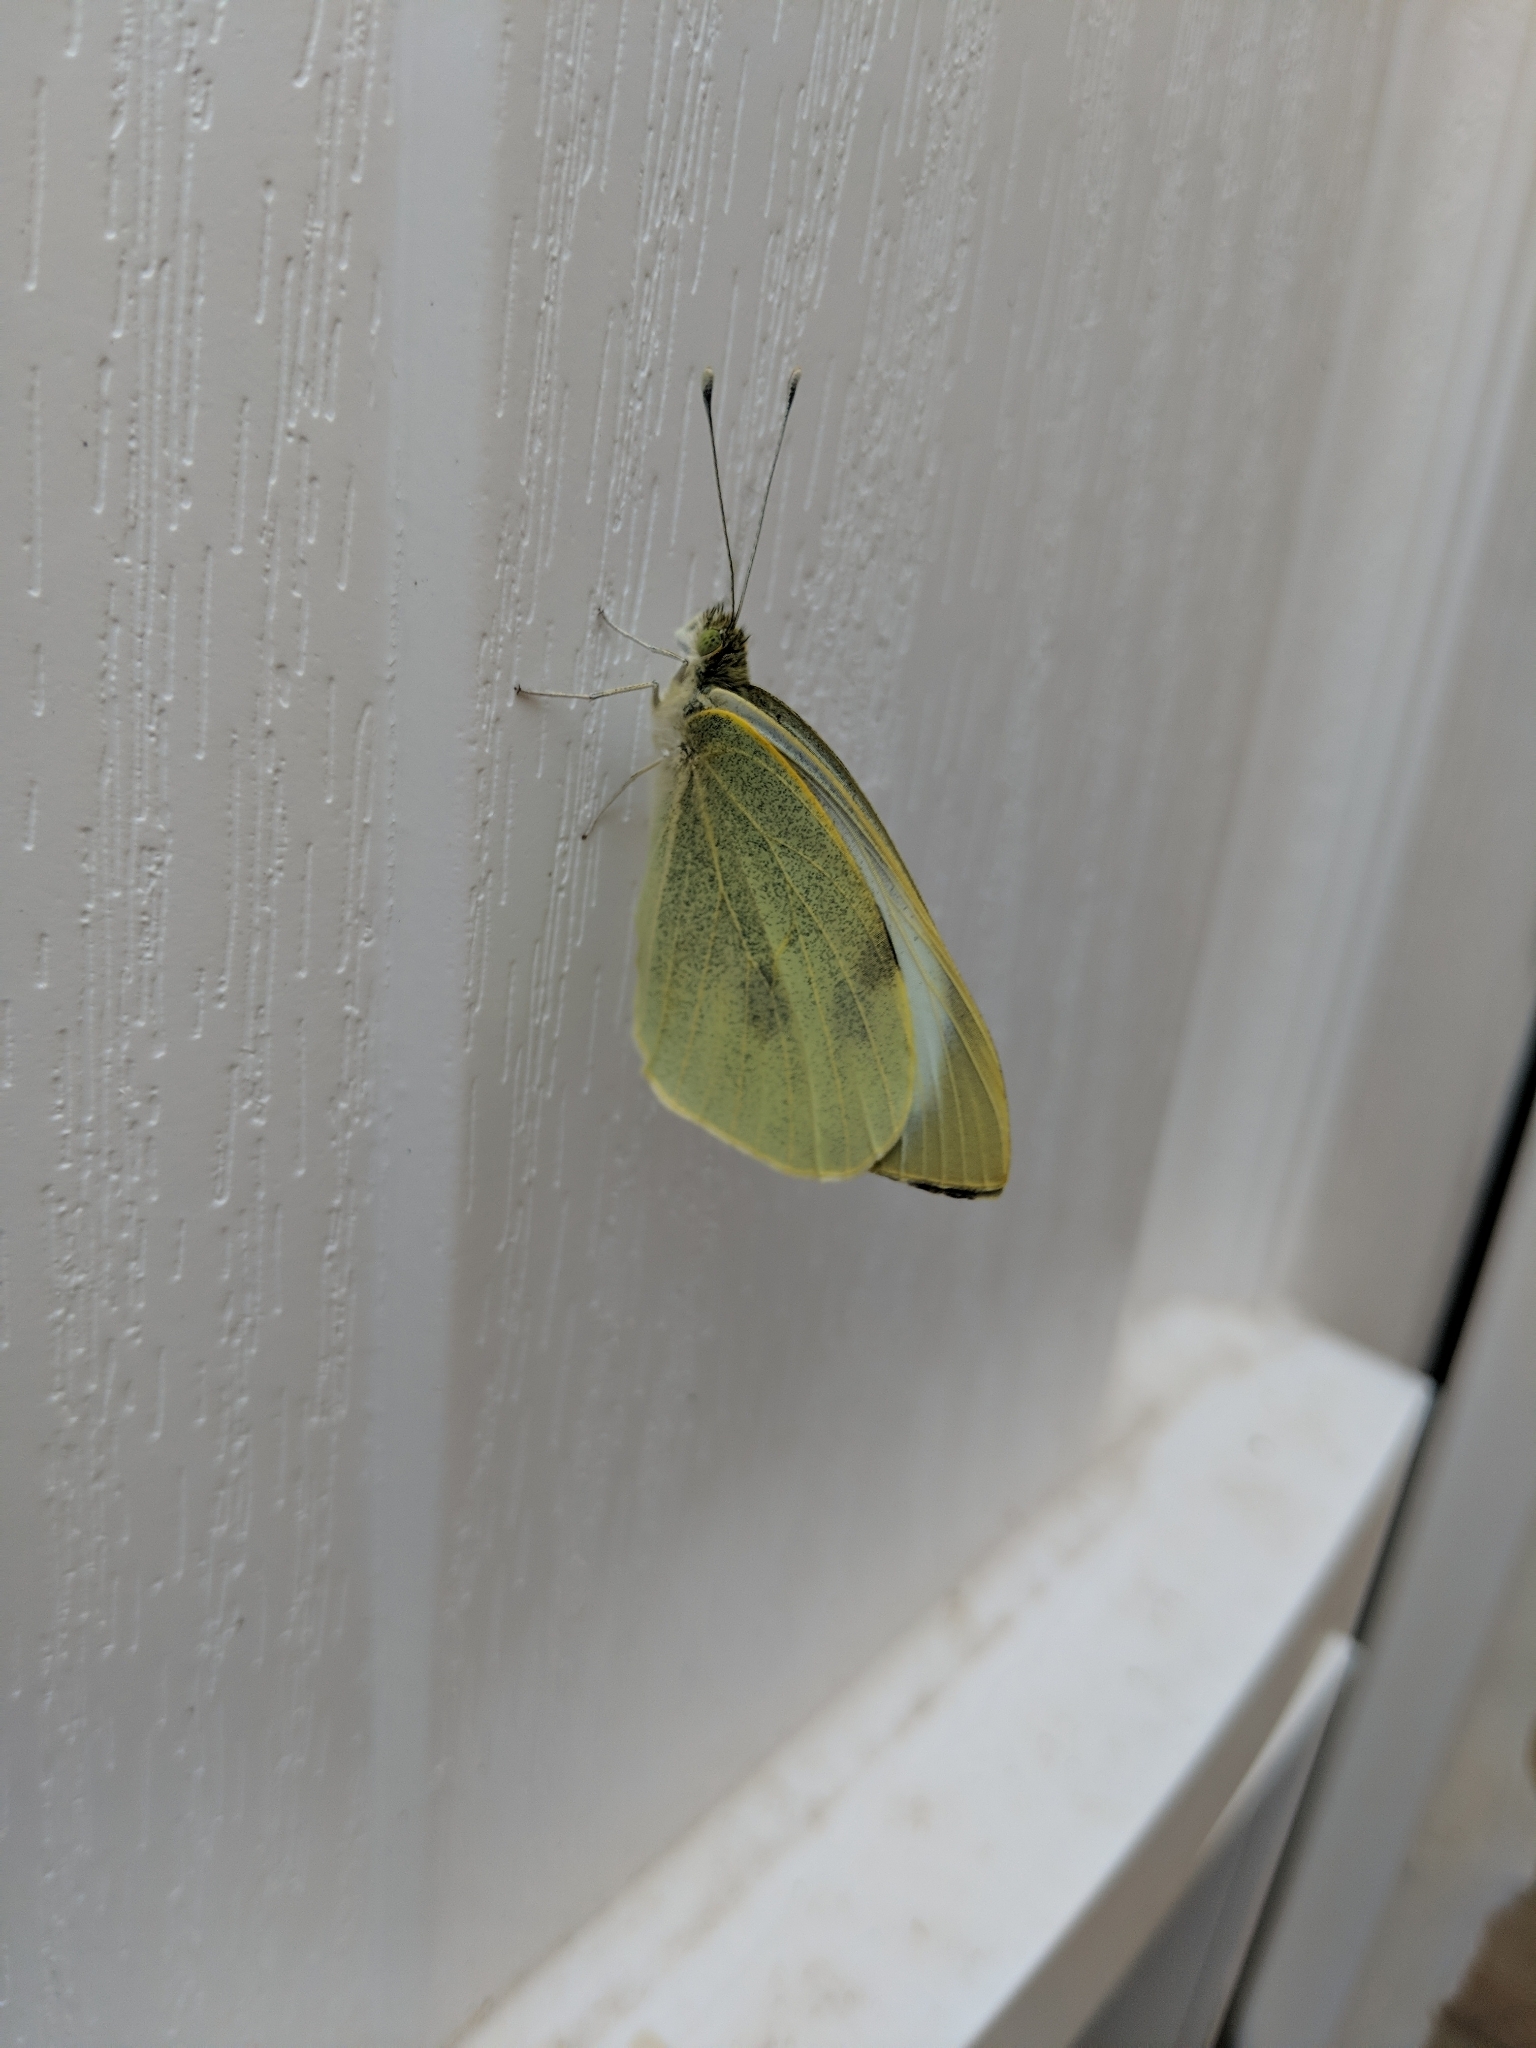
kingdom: Animalia
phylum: Arthropoda
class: Insecta
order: Lepidoptera
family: Pieridae
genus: Pieris
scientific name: Pieris brassicae
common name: Large white
